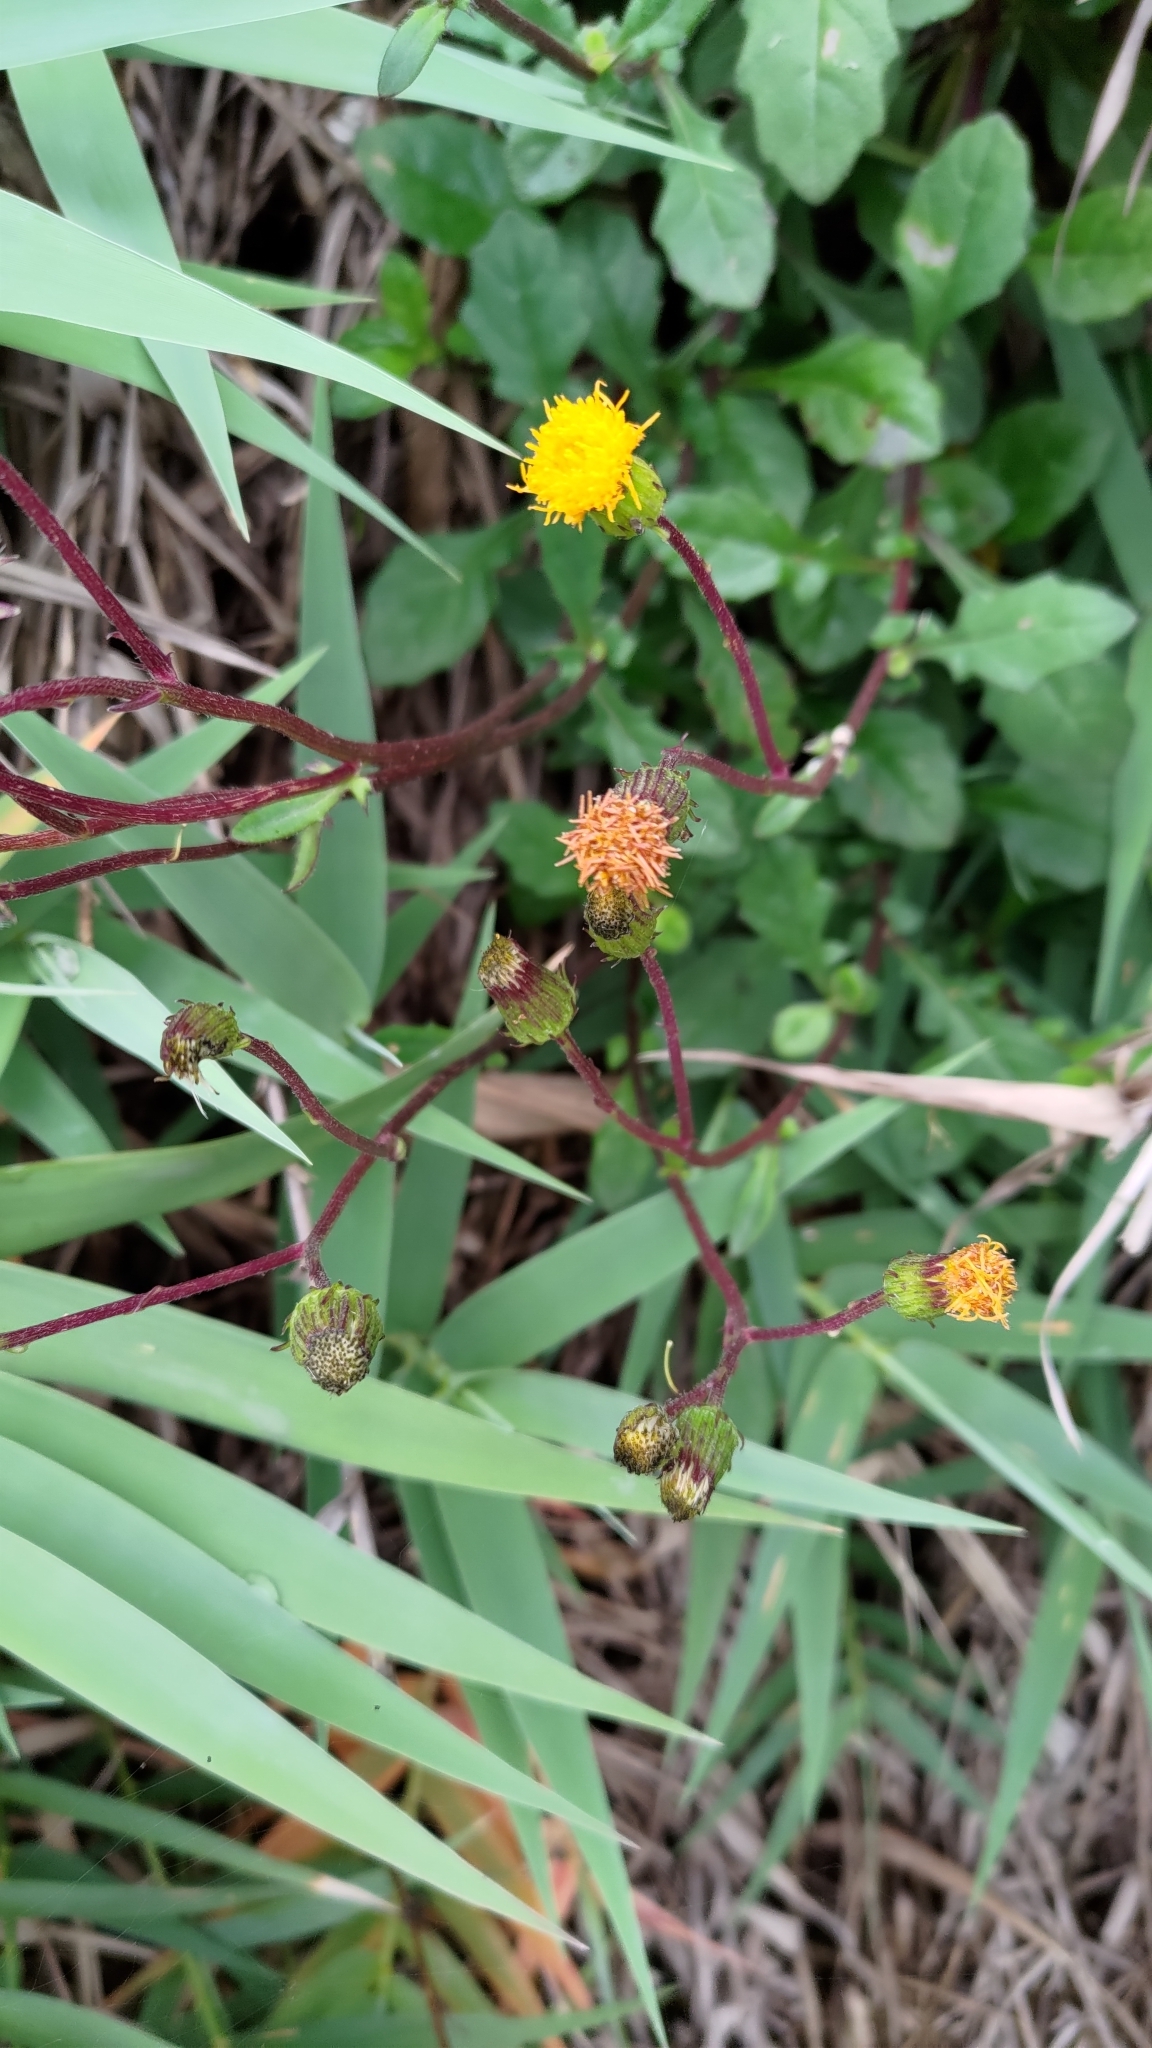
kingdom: Plantae
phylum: Tracheophyta
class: Magnoliopsida
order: Asterales
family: Asteraceae
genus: Gynura
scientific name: Gynura formosana
